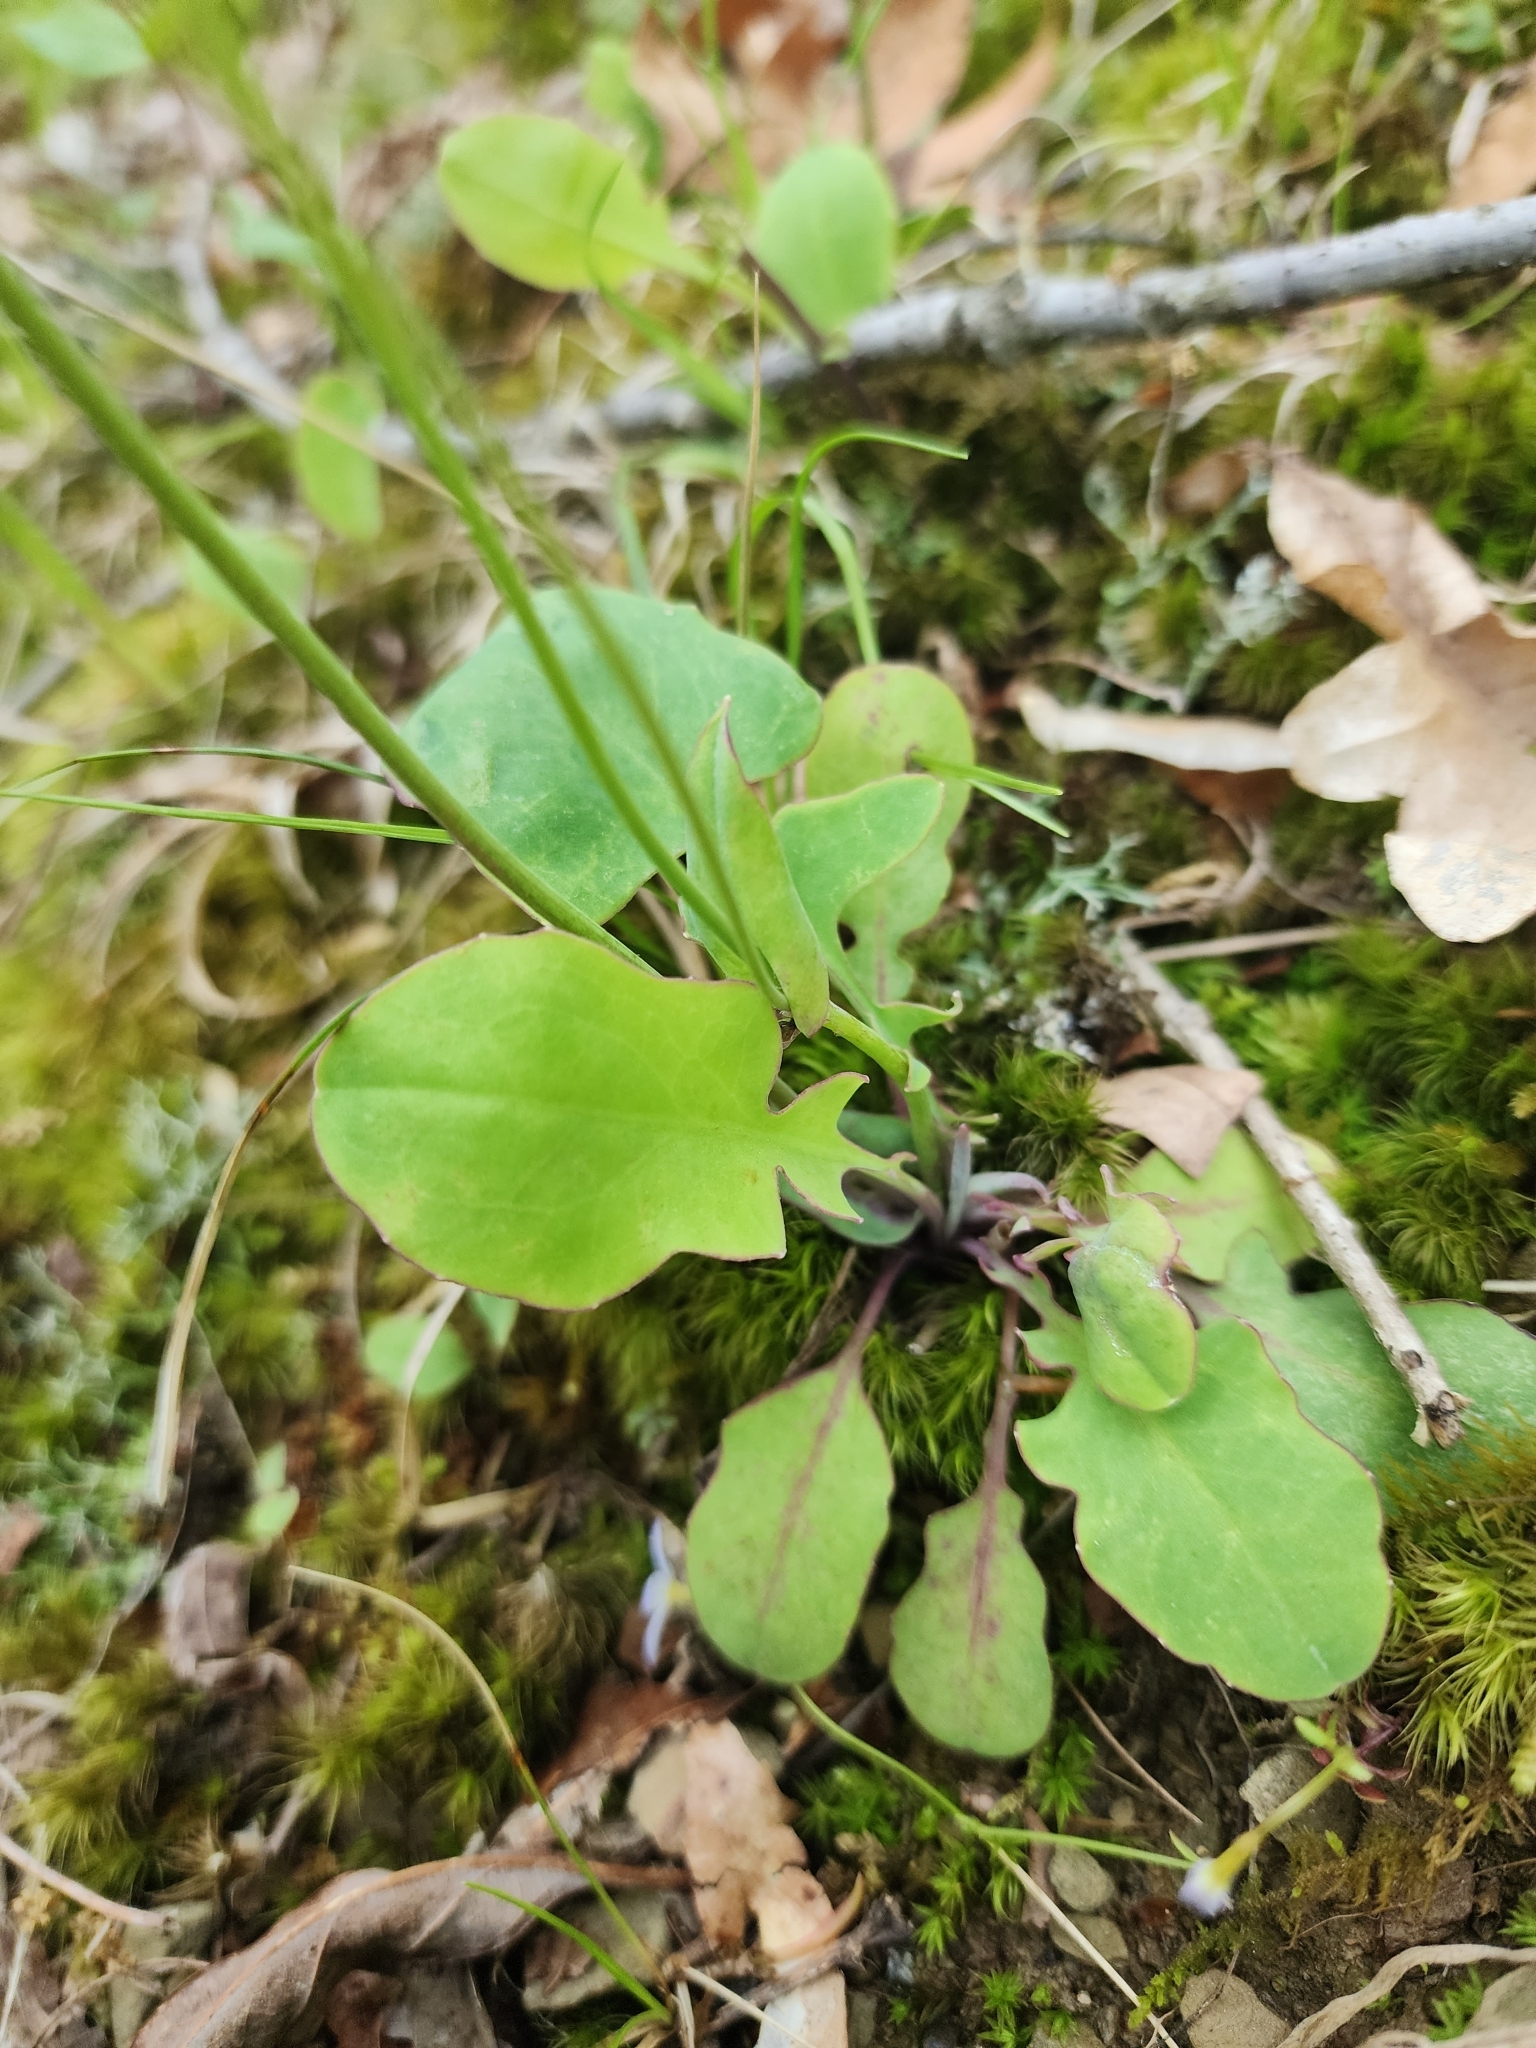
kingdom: Plantae
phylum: Tracheophyta
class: Magnoliopsida
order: Asterales
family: Asteraceae
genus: Krigia
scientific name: Krigia biflora
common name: Orange dwarf-dandelion
